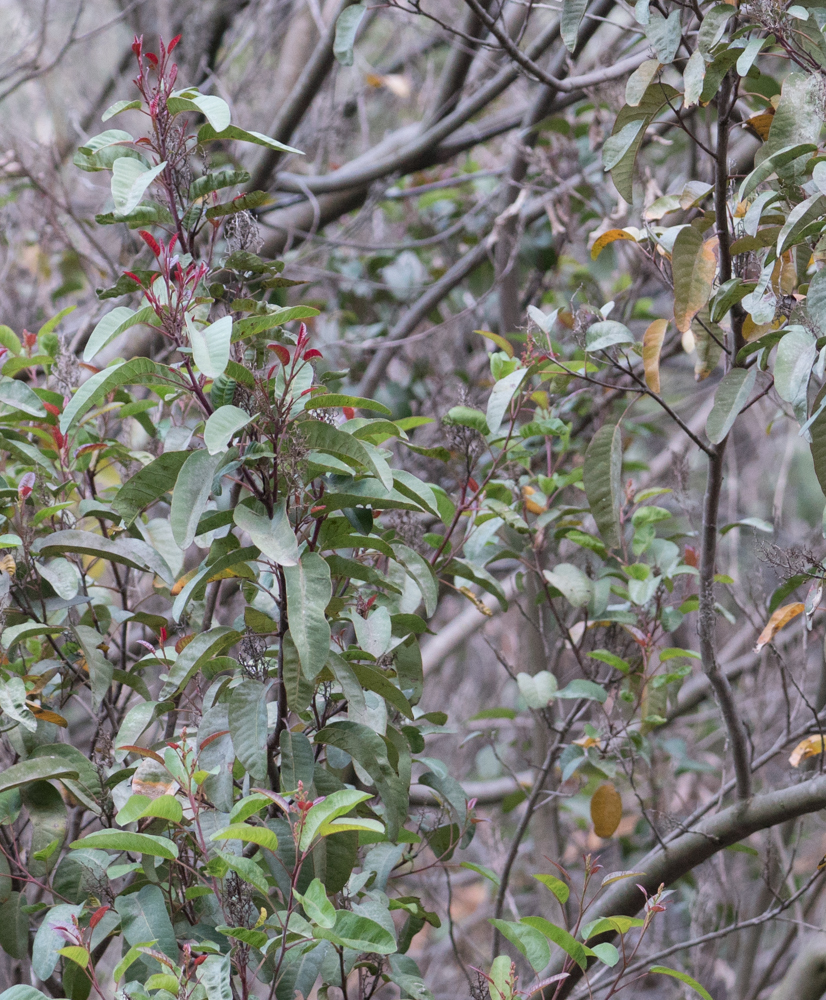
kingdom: Plantae
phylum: Tracheophyta
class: Magnoliopsida
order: Sapindales
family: Anacardiaceae
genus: Malosma
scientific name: Malosma laurina
